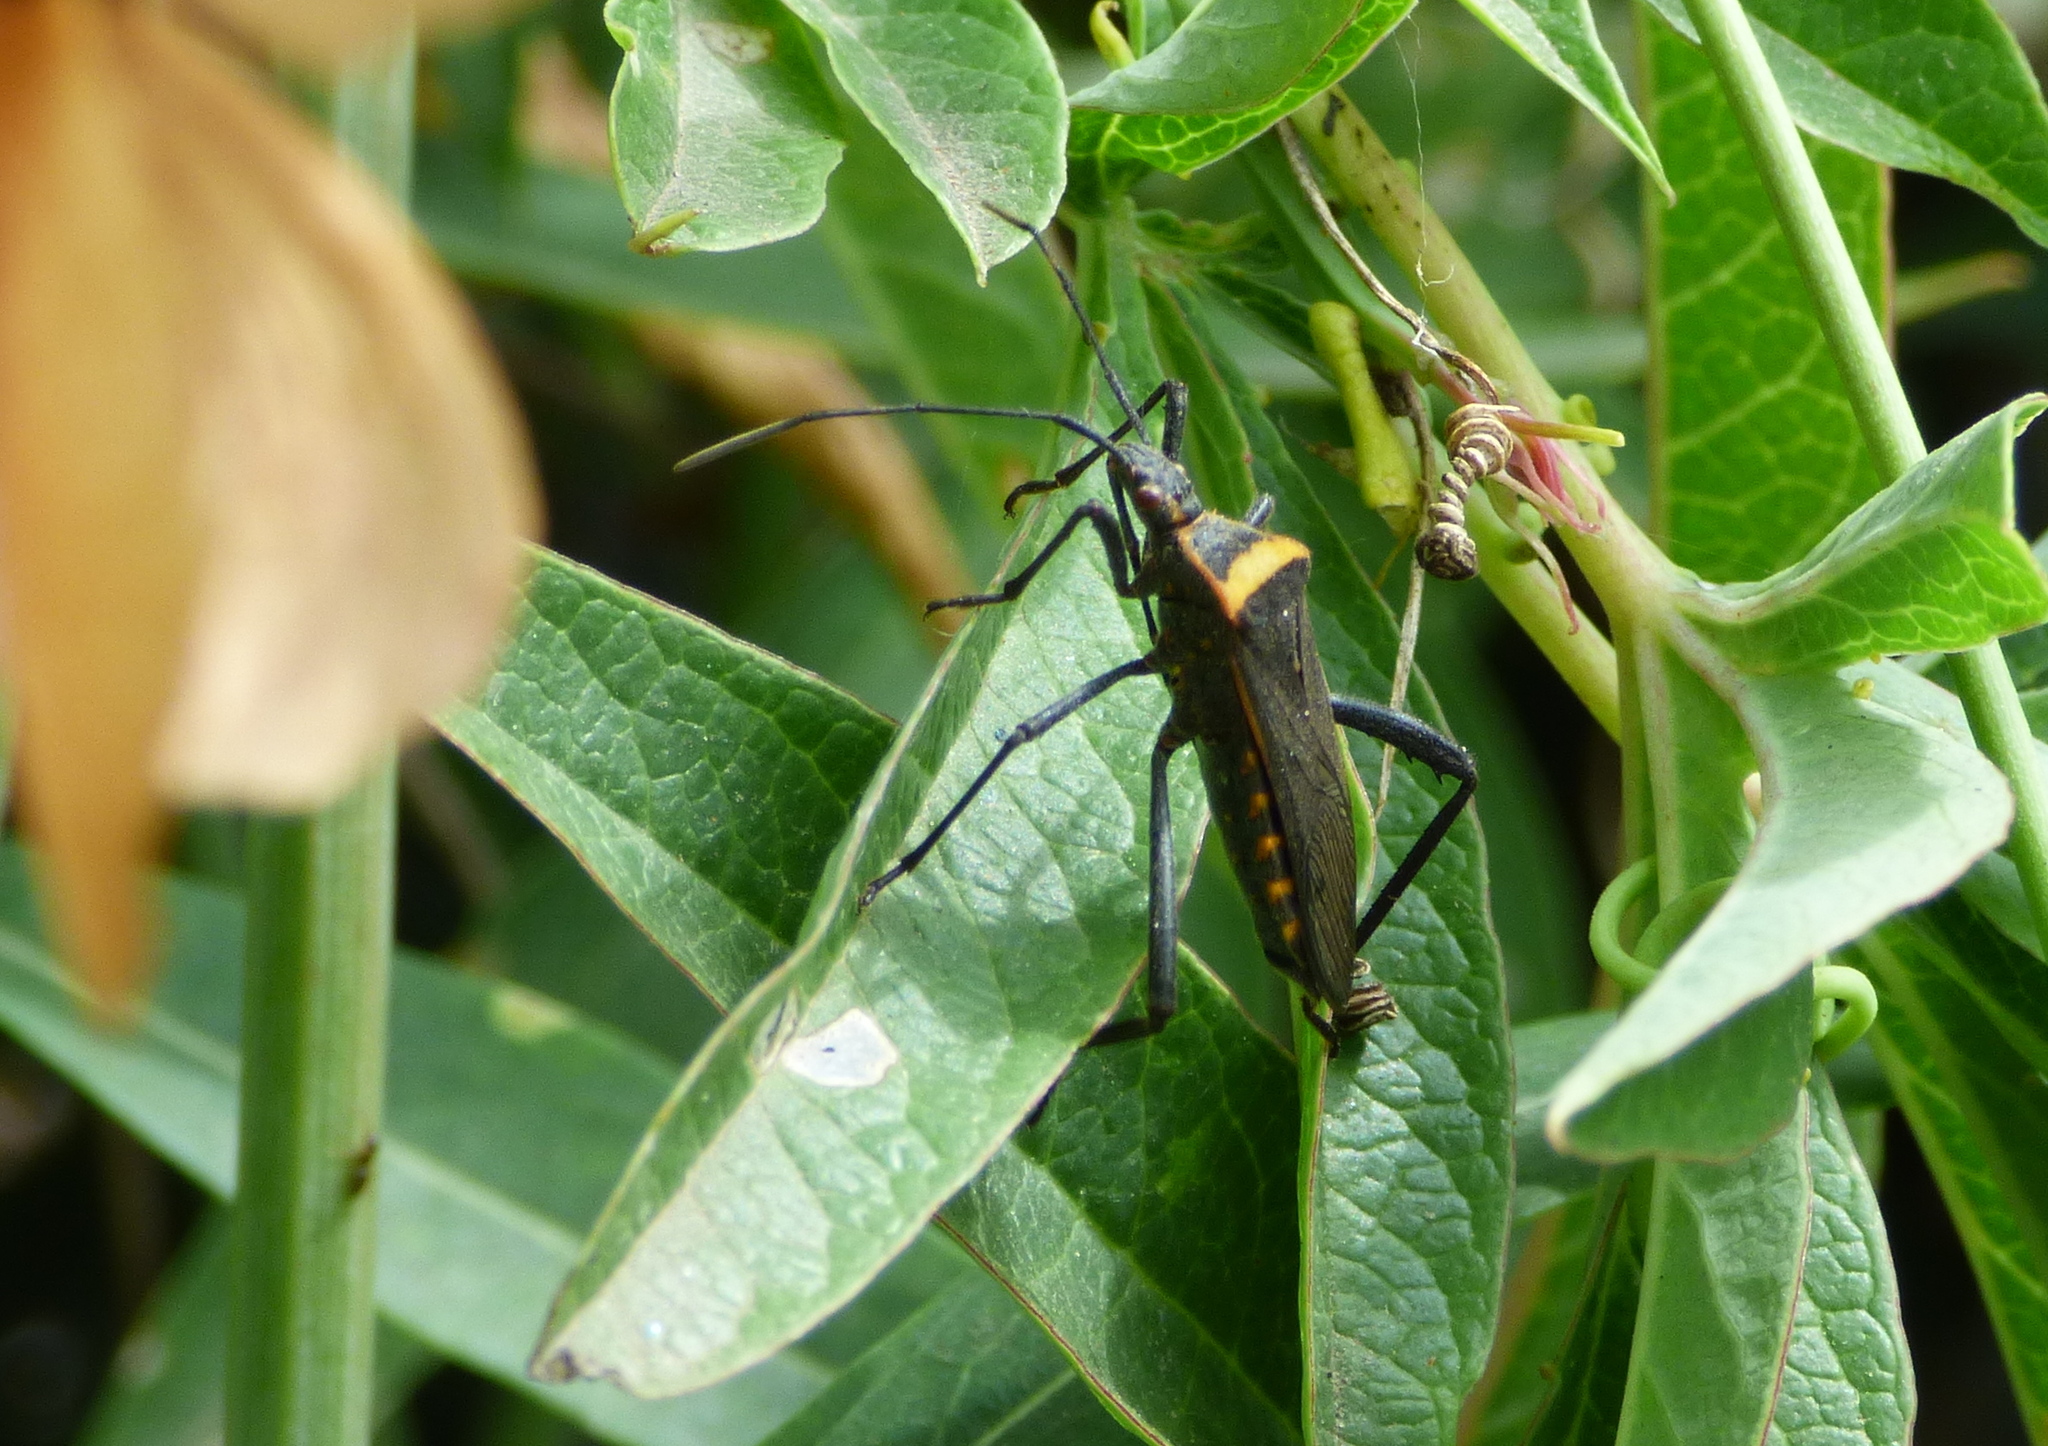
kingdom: Animalia
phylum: Arthropoda
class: Insecta
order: Hemiptera
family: Coreidae
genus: Phthiacnemia
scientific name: Phthiacnemia picta
